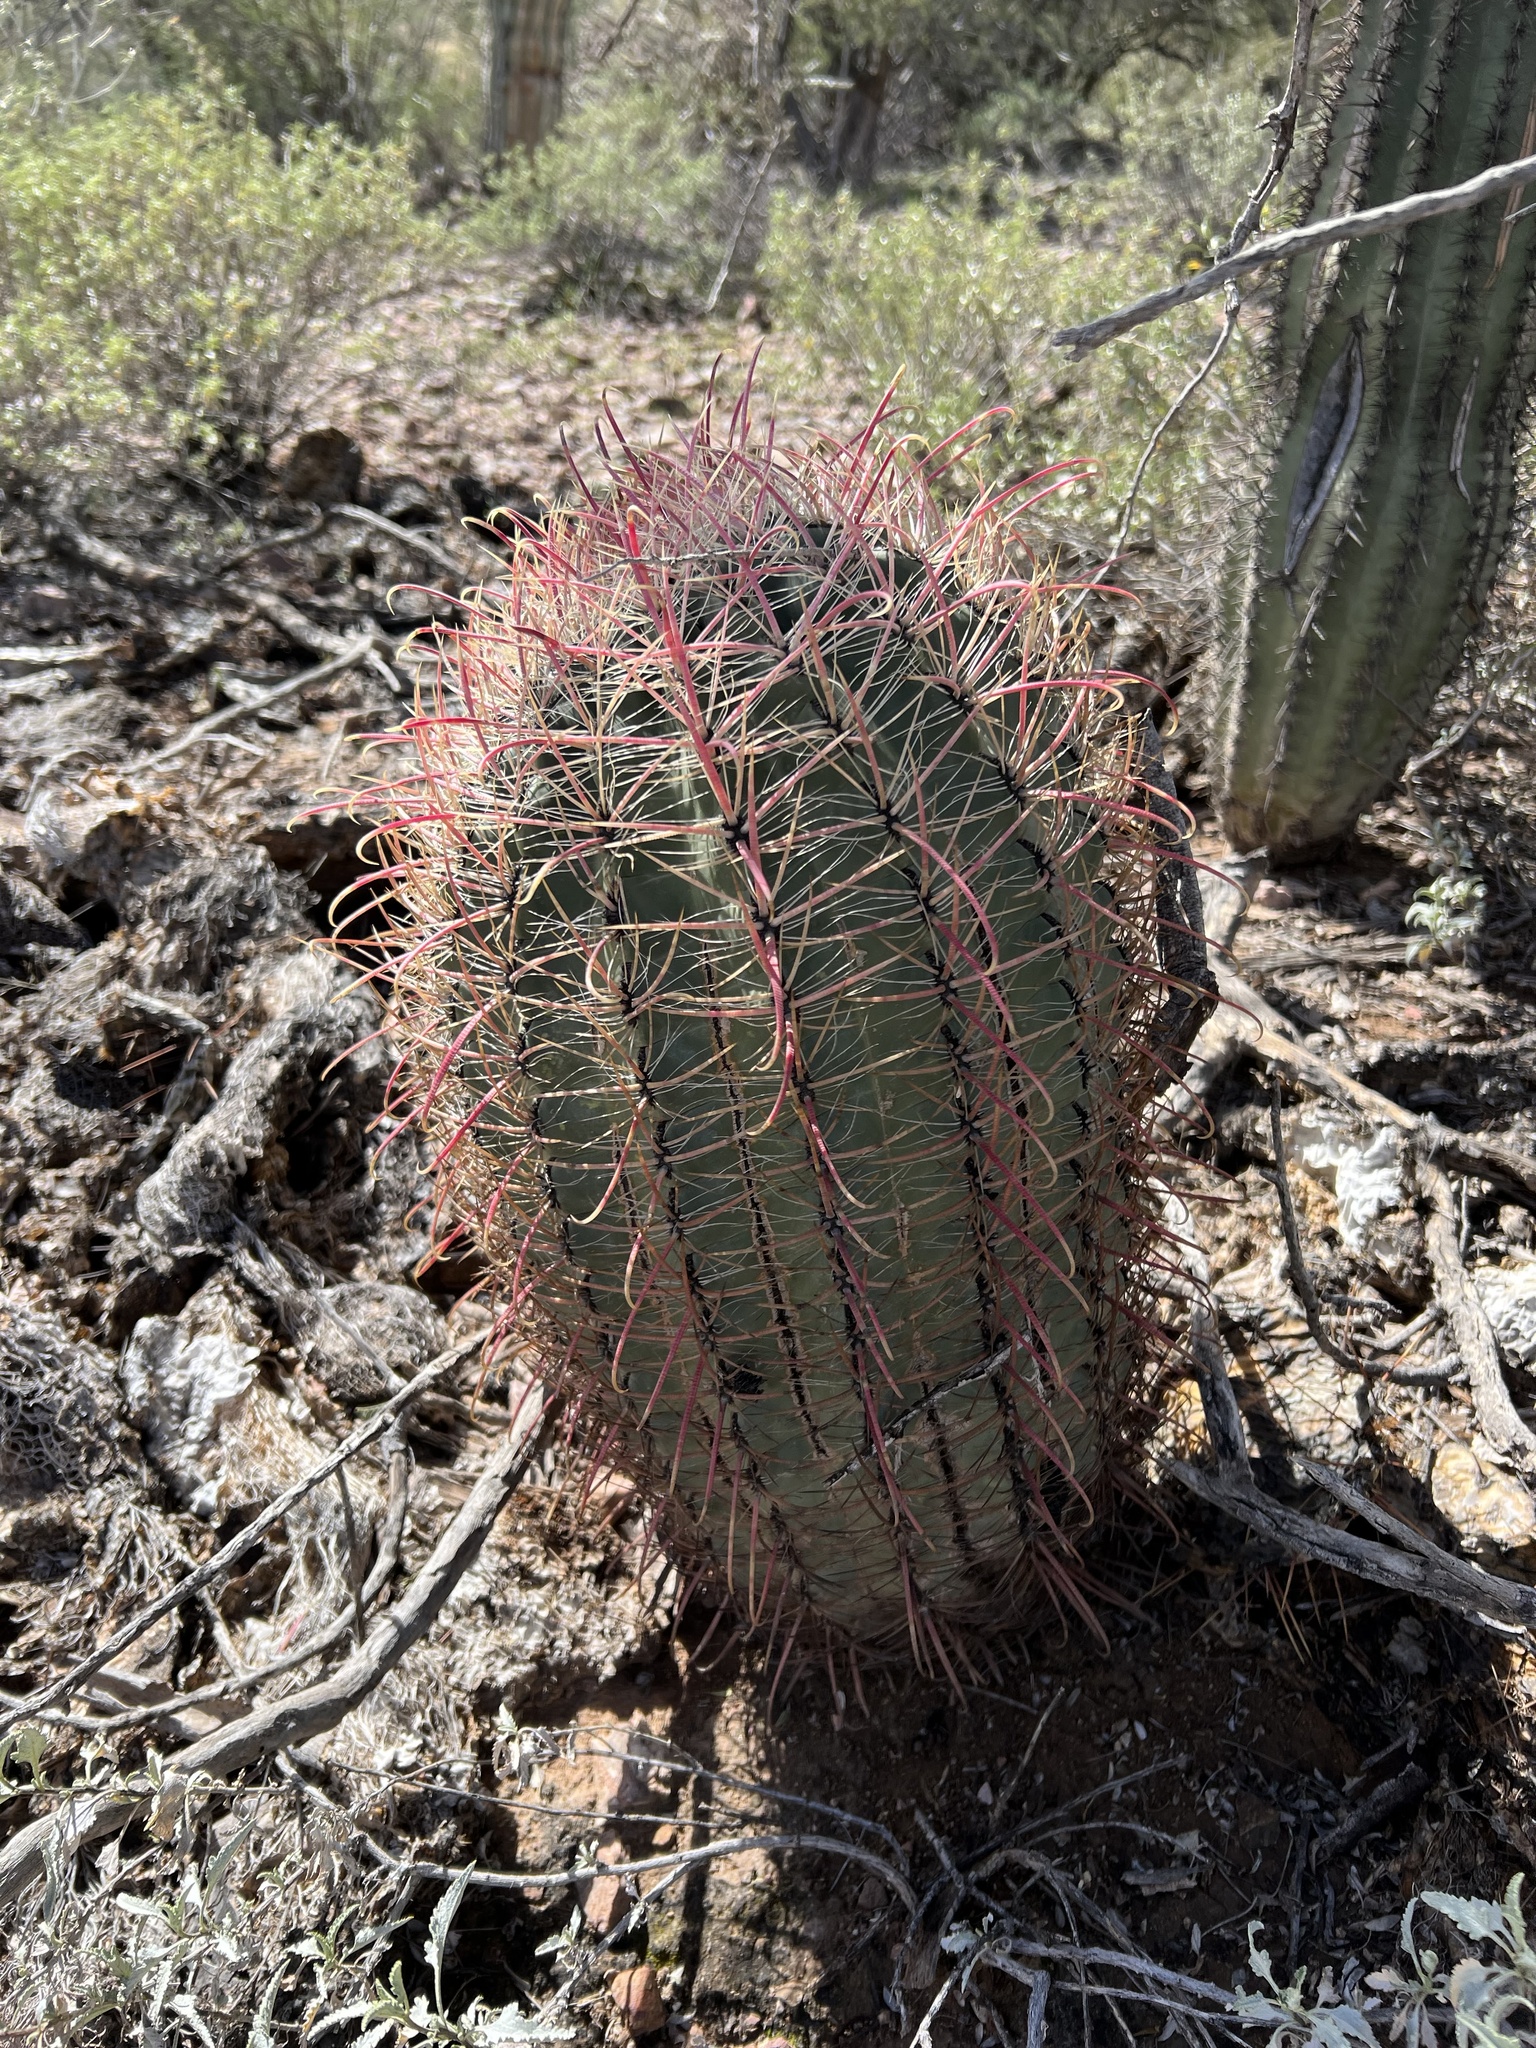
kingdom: Plantae
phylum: Tracheophyta
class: Magnoliopsida
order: Caryophyllales
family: Cactaceae
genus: Ferocactus
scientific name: Ferocactus cylindraceus
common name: California barrel cactus
